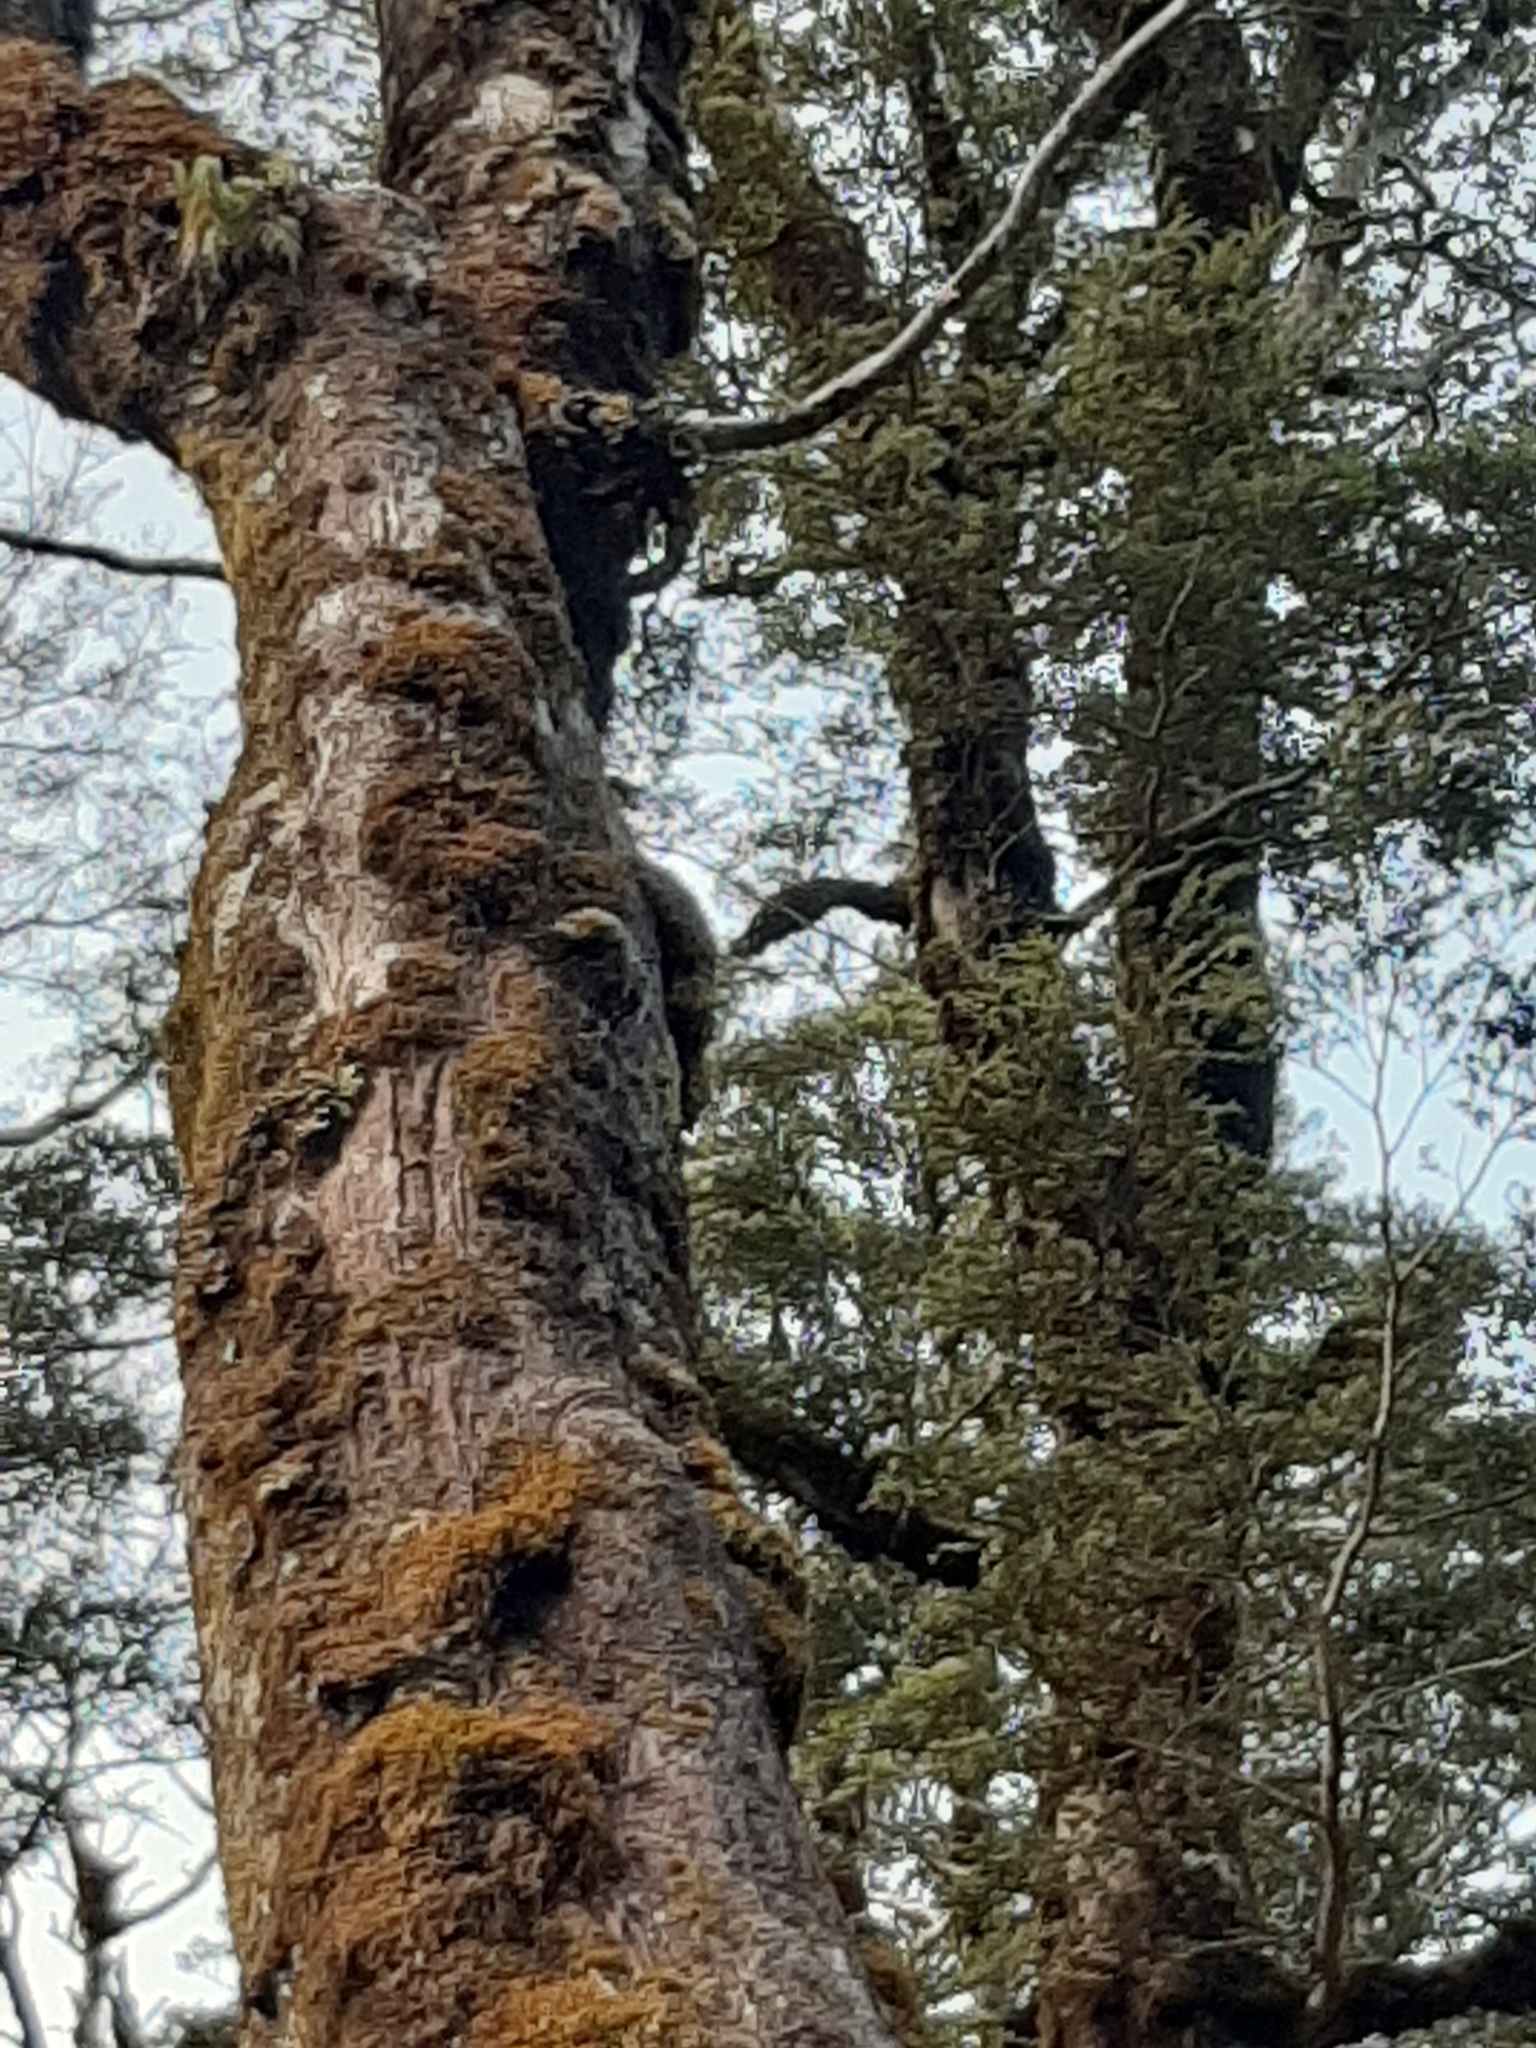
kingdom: Animalia
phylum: Chordata
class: Aves
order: Passeriformes
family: Acanthisittidae
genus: Acanthisitta
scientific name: Acanthisitta chloris
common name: Rifleman
